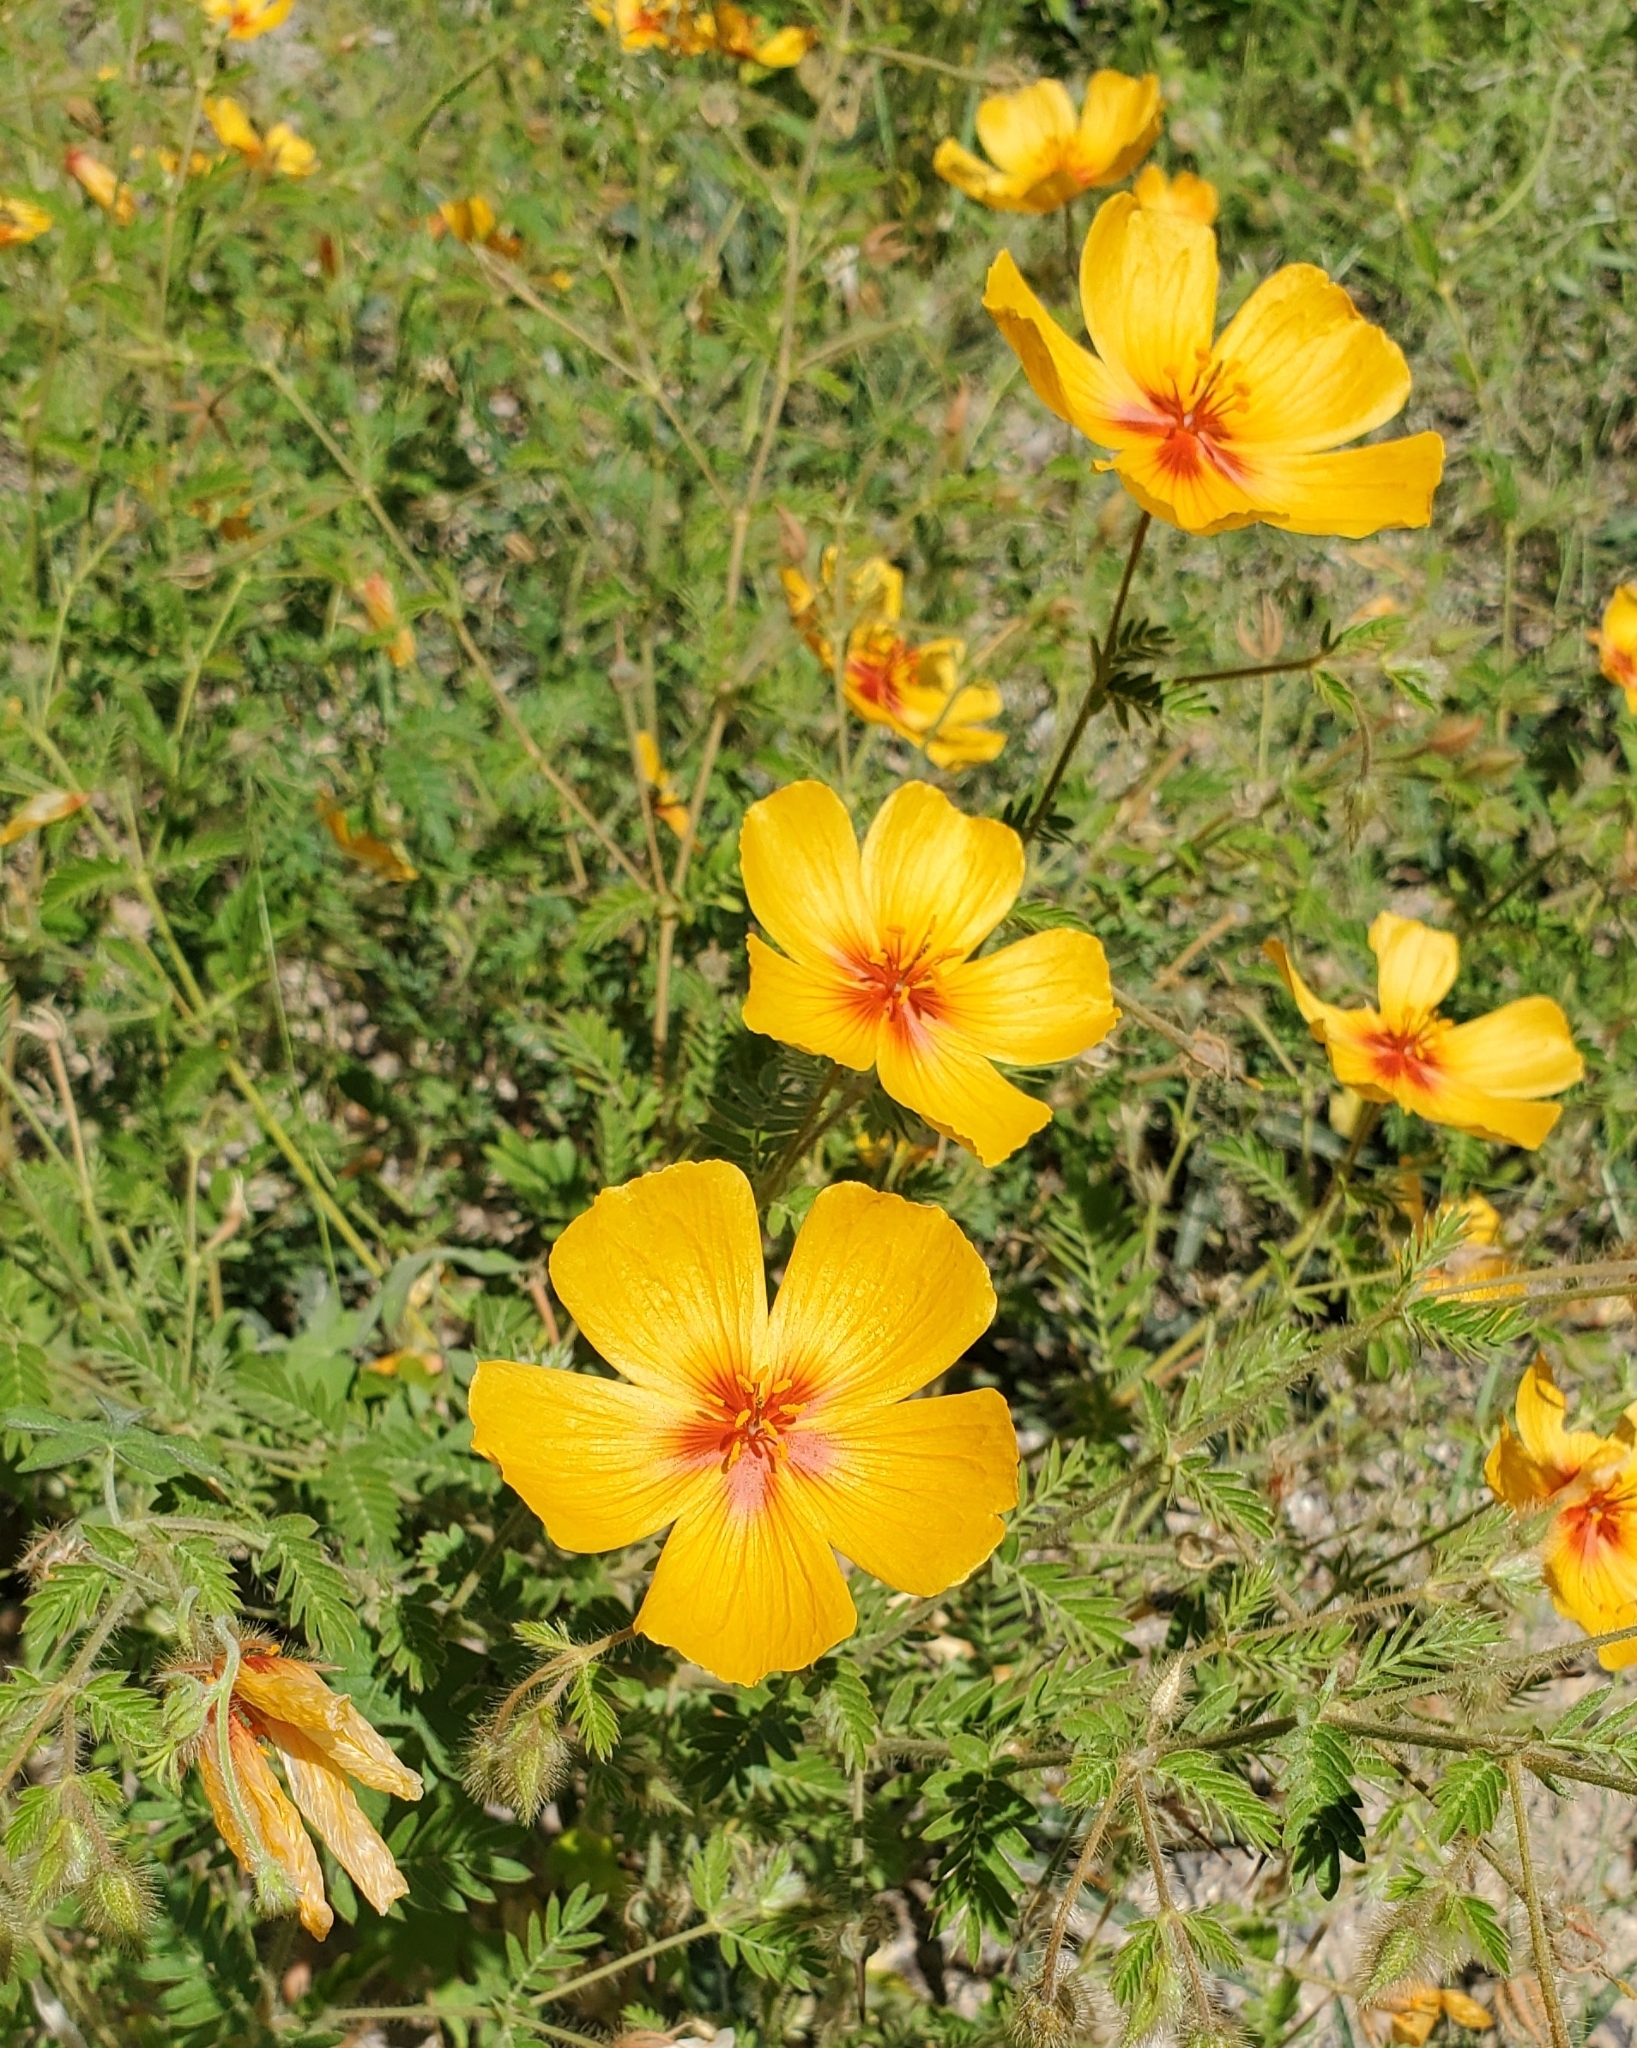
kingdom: Plantae
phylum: Tracheophyta
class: Magnoliopsida
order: Zygophyllales
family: Zygophyllaceae
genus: Kallstroemia
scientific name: Kallstroemia grandiflora
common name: Arizona-poppy
